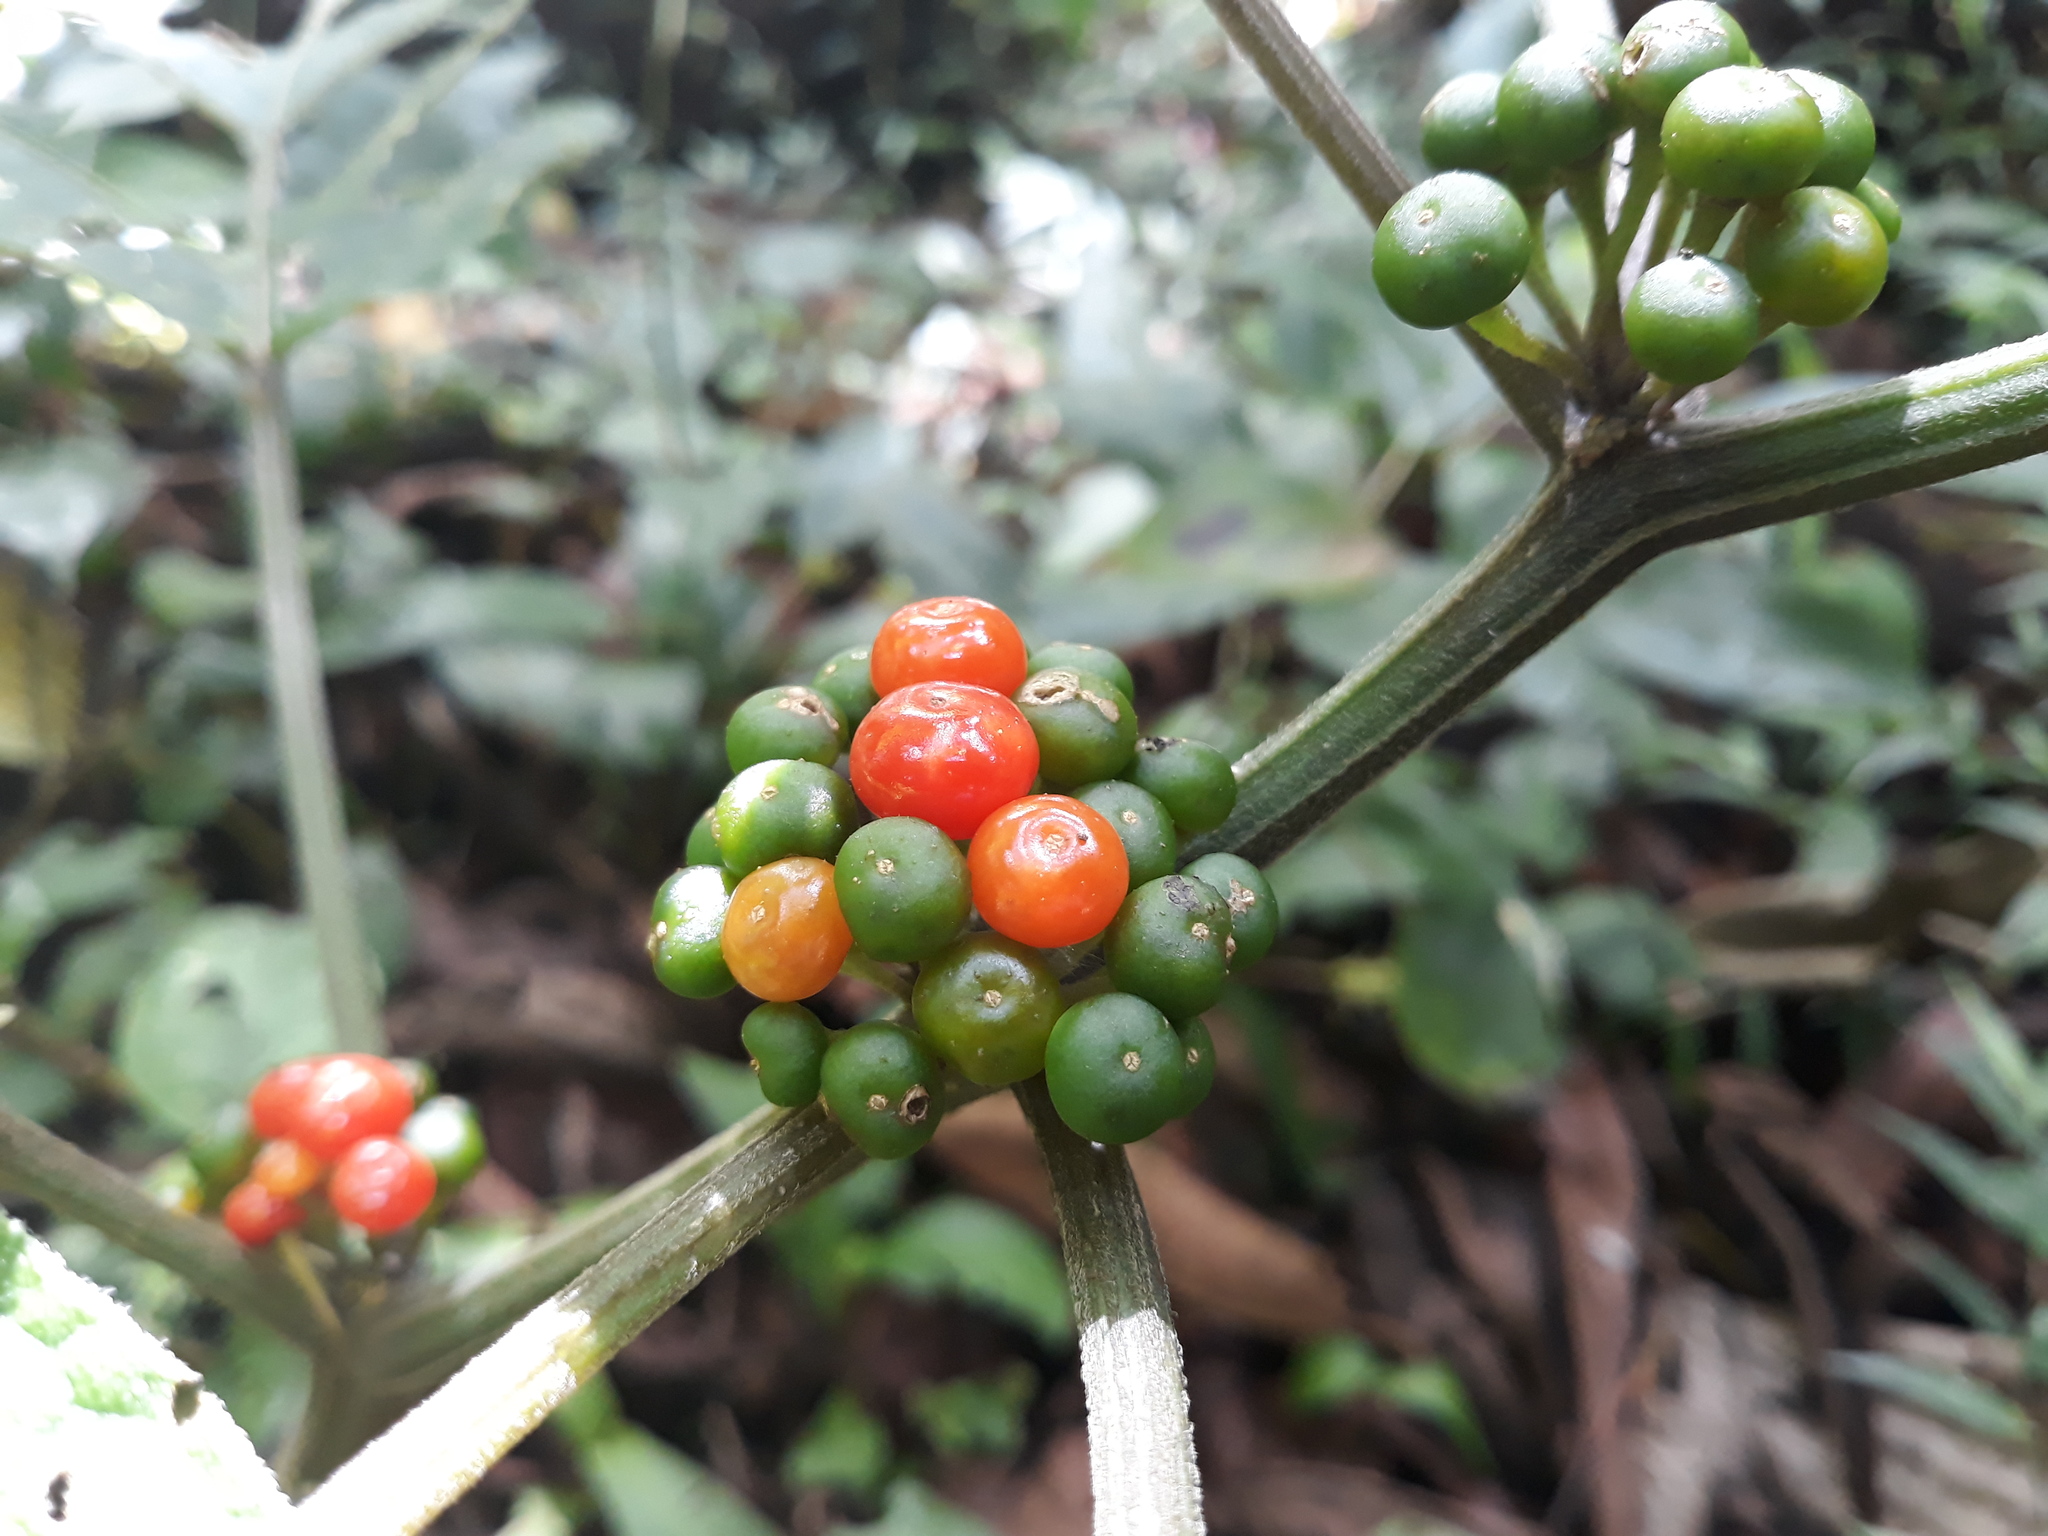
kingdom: Plantae
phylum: Tracheophyta
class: Magnoliopsida
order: Solanales
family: Solanaceae
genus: Lycianthes
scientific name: Lycianthes heteroclita
